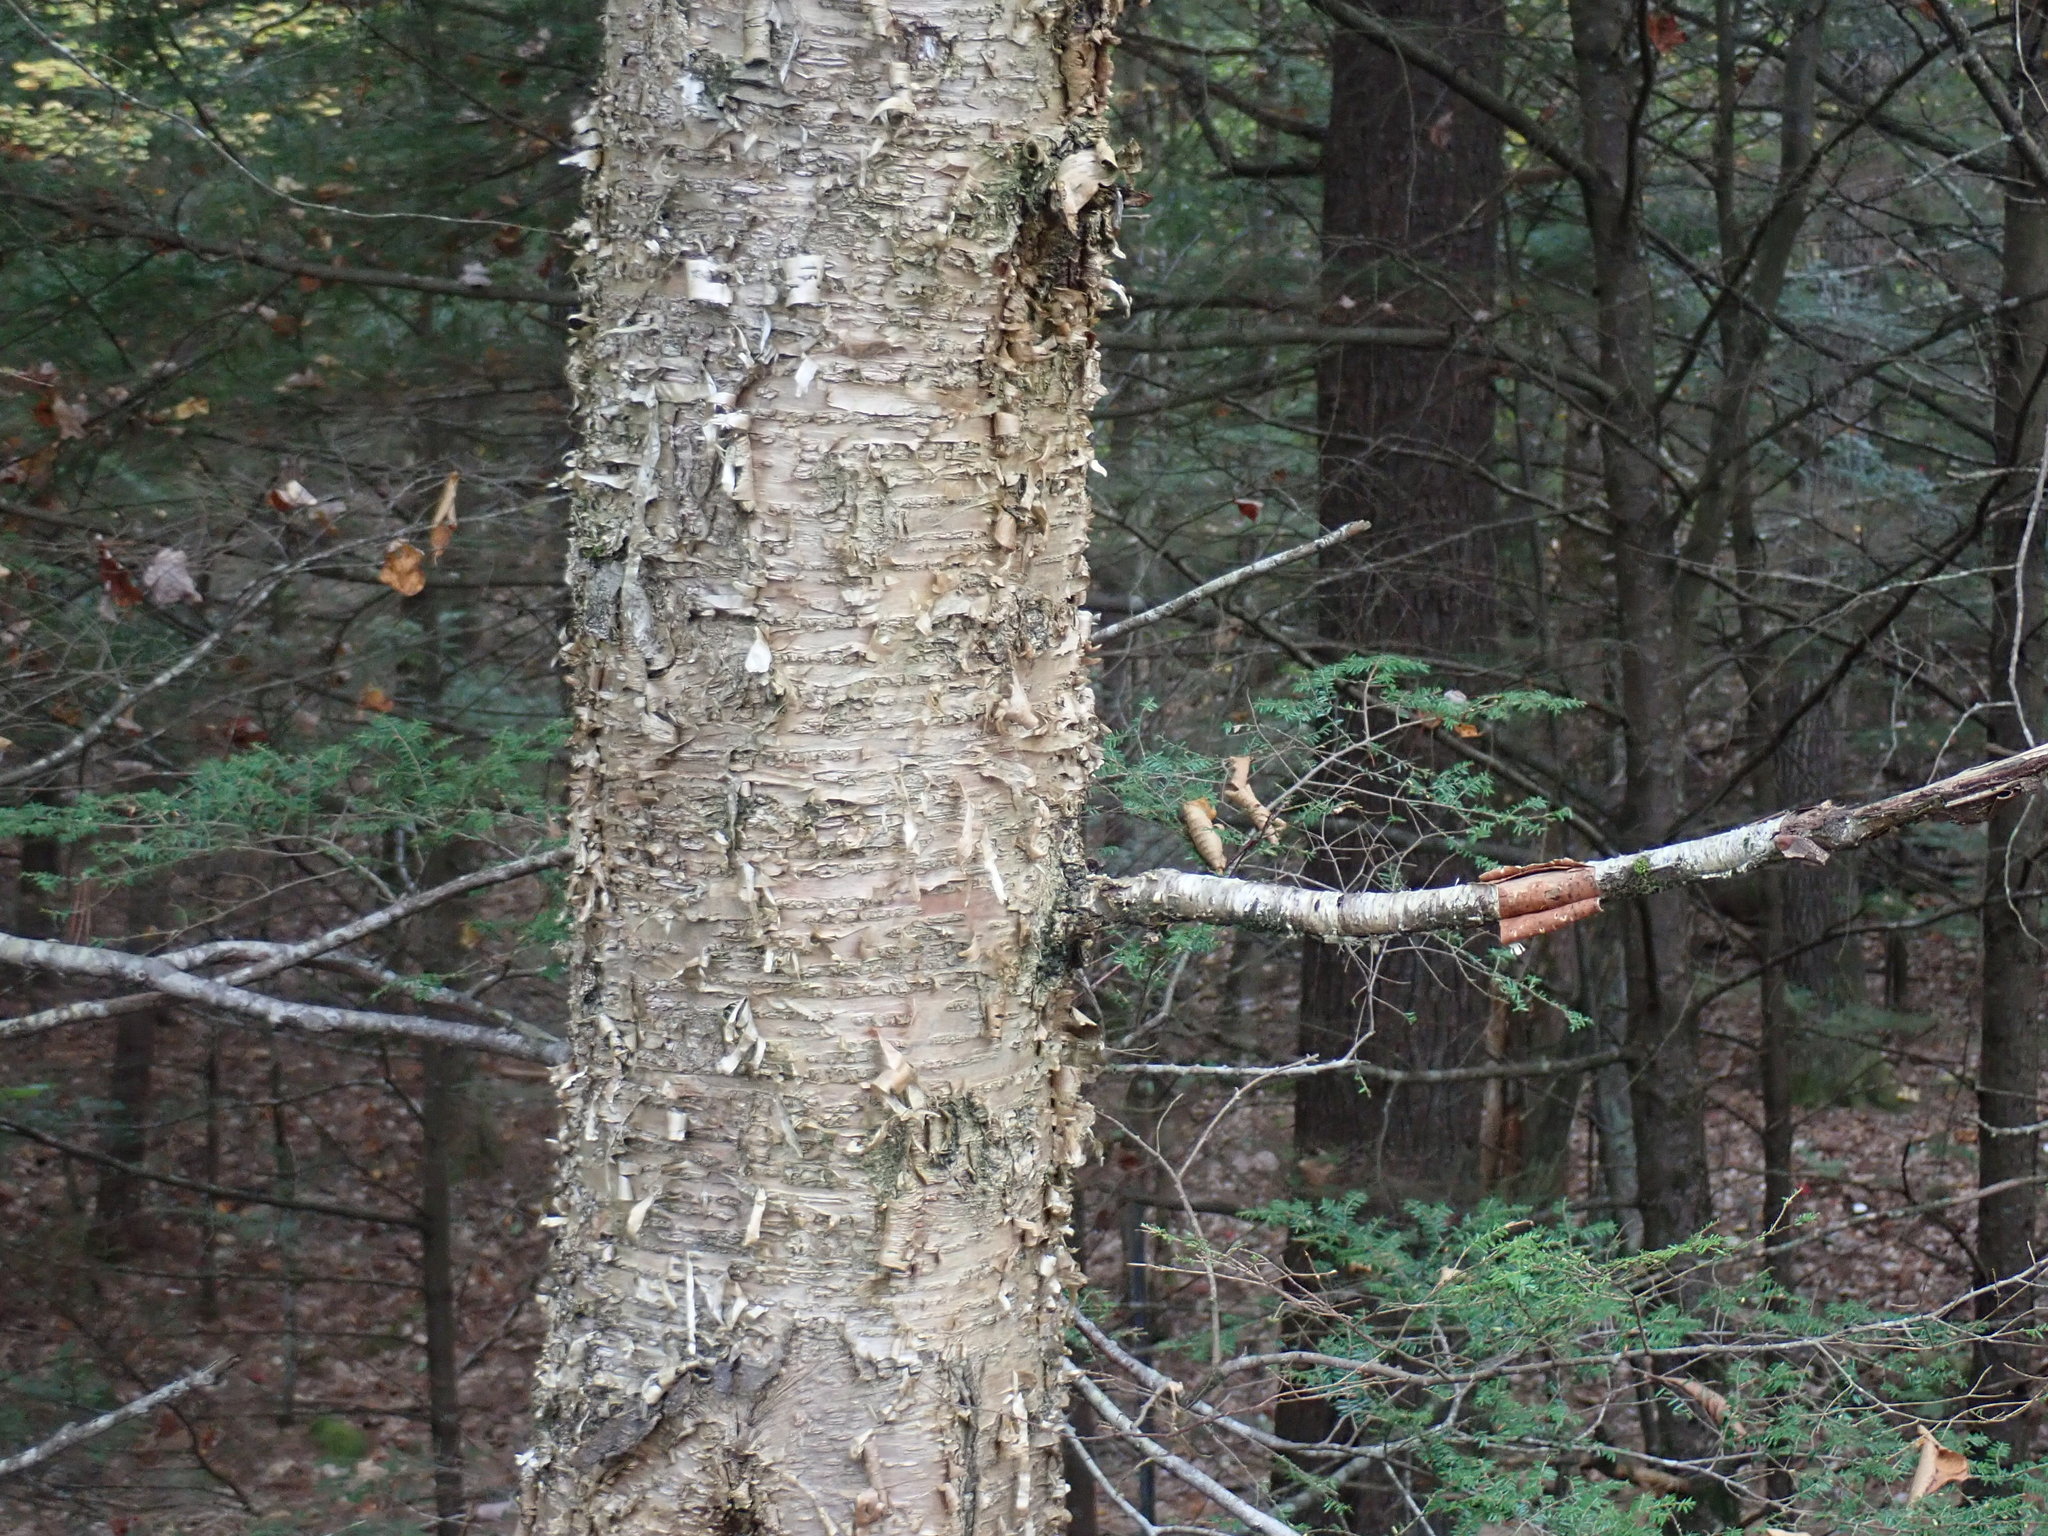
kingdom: Plantae
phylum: Tracheophyta
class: Magnoliopsida
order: Fagales
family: Betulaceae
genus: Betula
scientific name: Betula alleghaniensis
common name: Yellow birch
